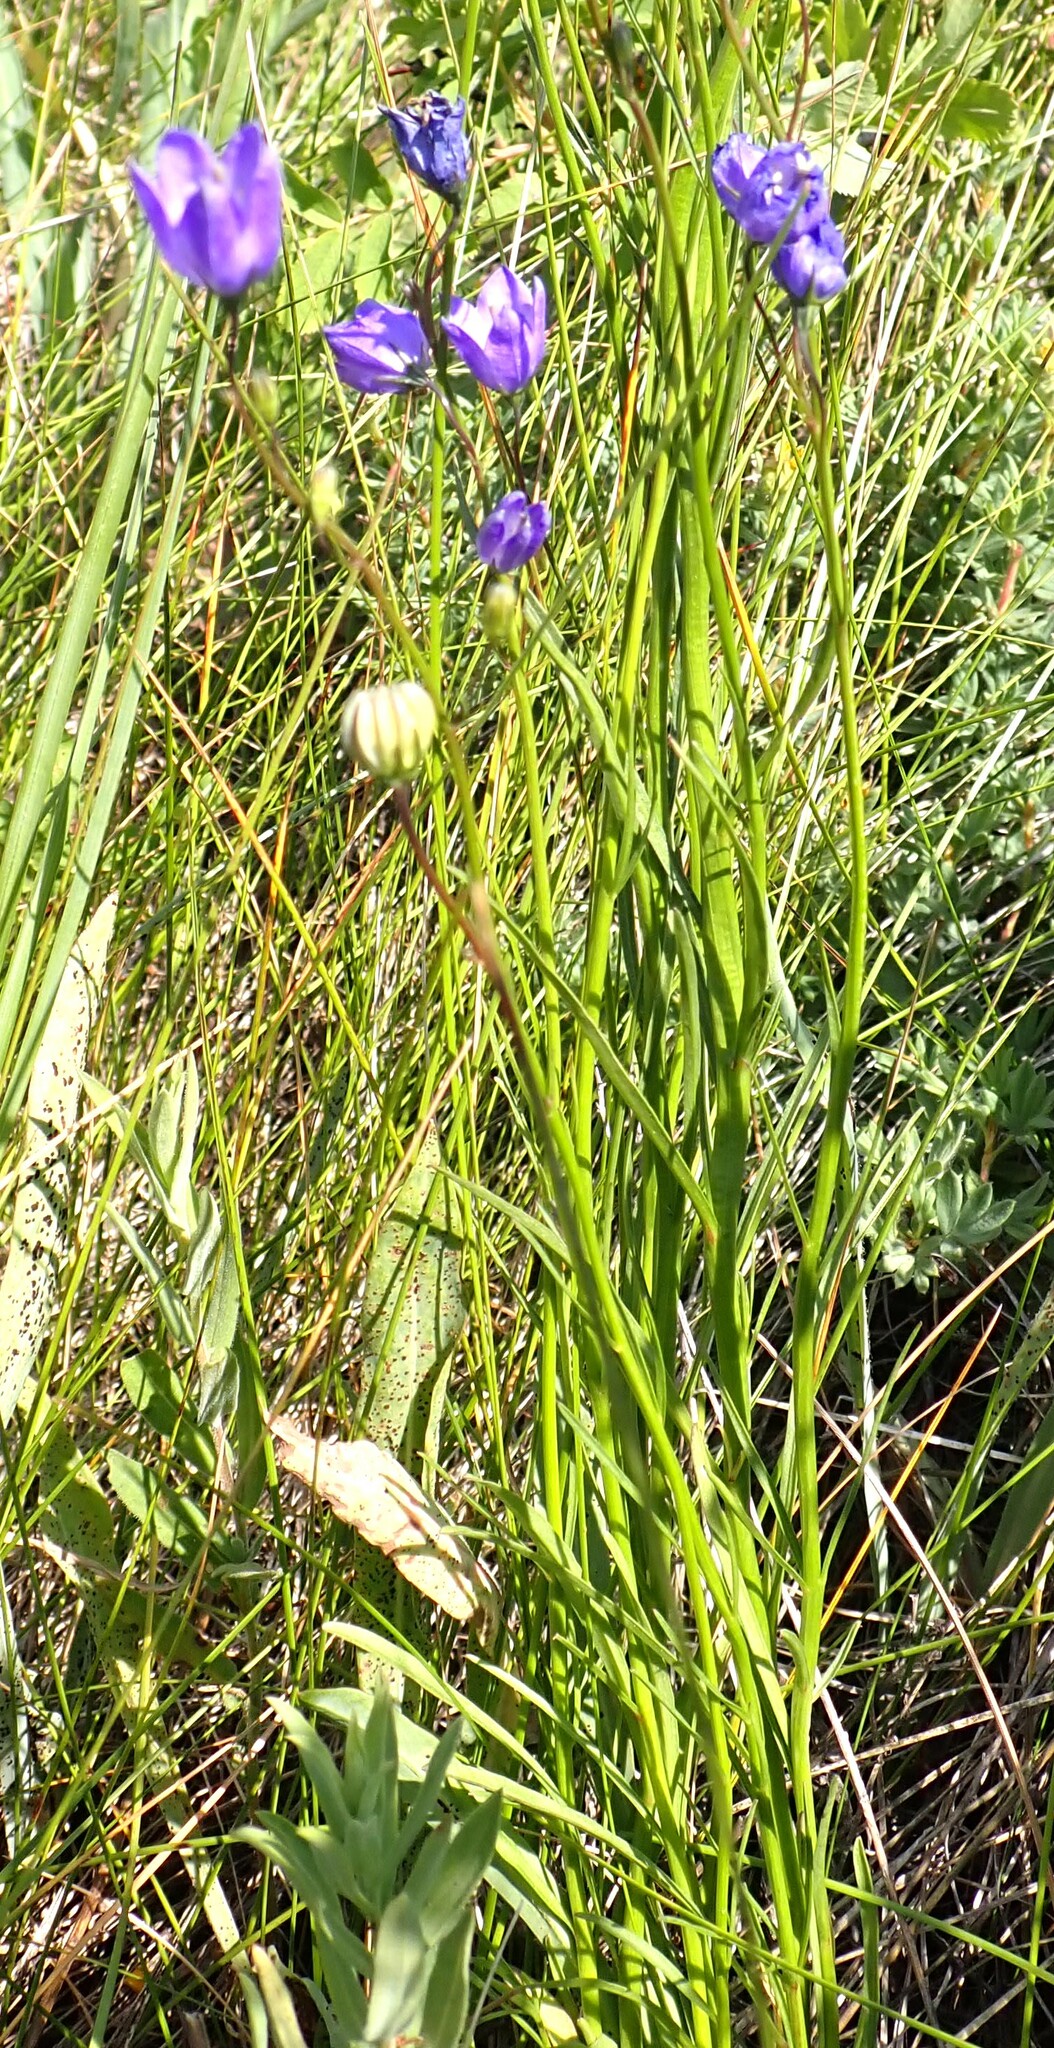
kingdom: Plantae
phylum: Tracheophyta
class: Magnoliopsida
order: Asterales
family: Campanulaceae
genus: Campanula
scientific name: Campanula alaskana
